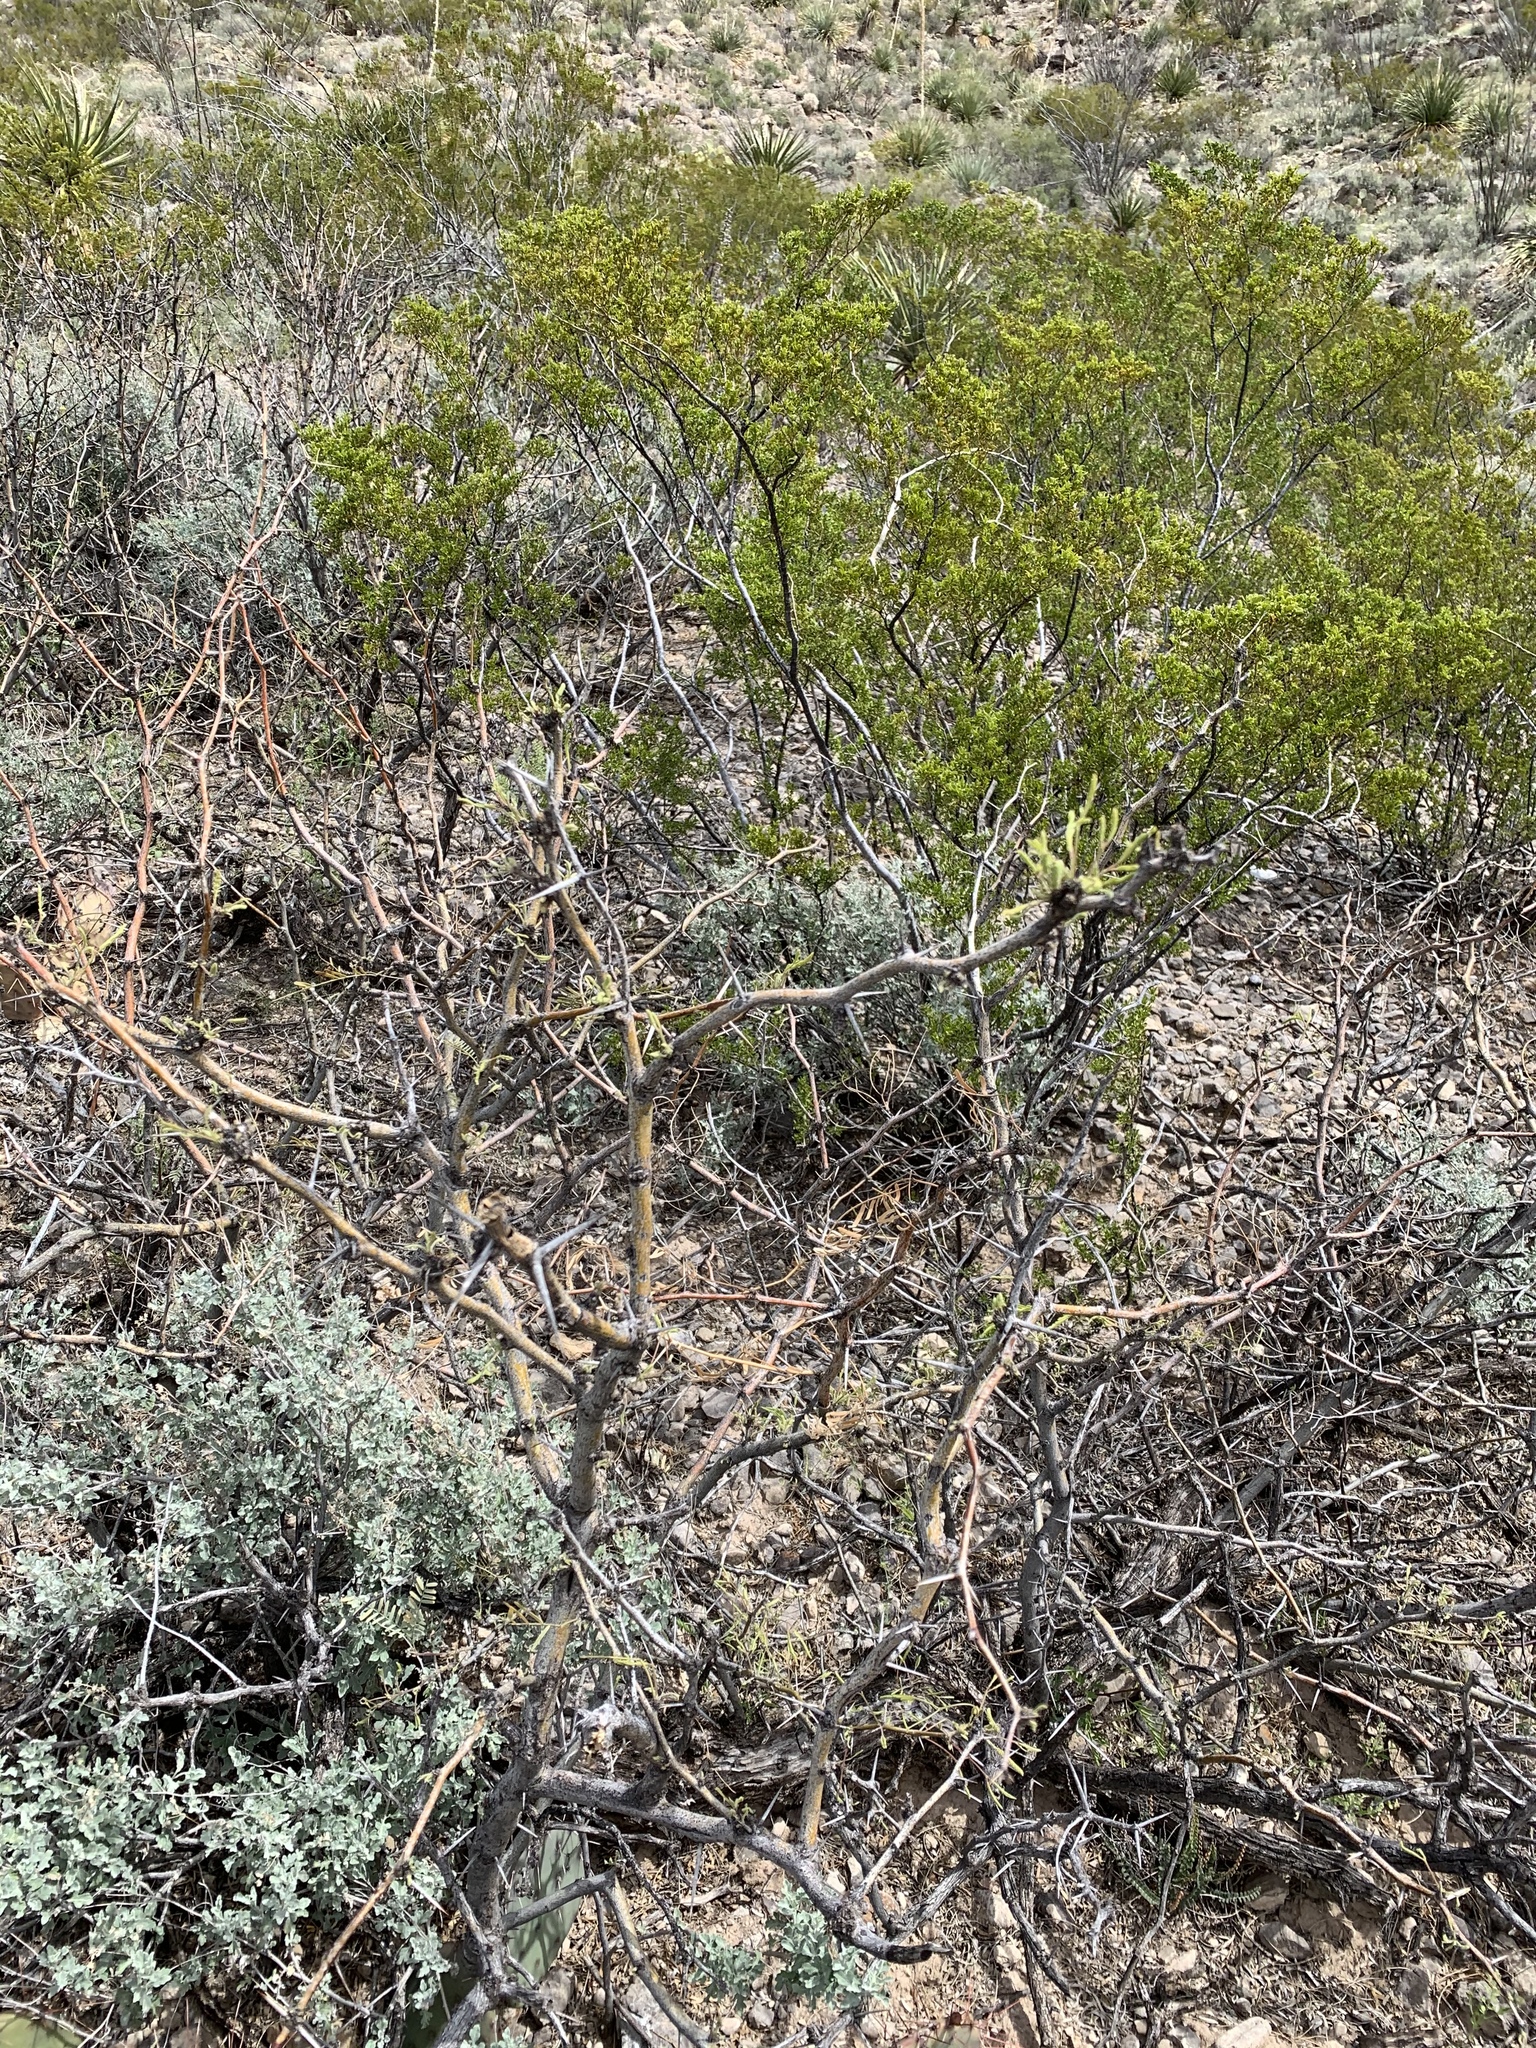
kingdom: Plantae
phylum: Tracheophyta
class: Magnoliopsida
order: Fabales
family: Fabaceae
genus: Prosopis
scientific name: Prosopis glandulosa
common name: Honey mesquite
